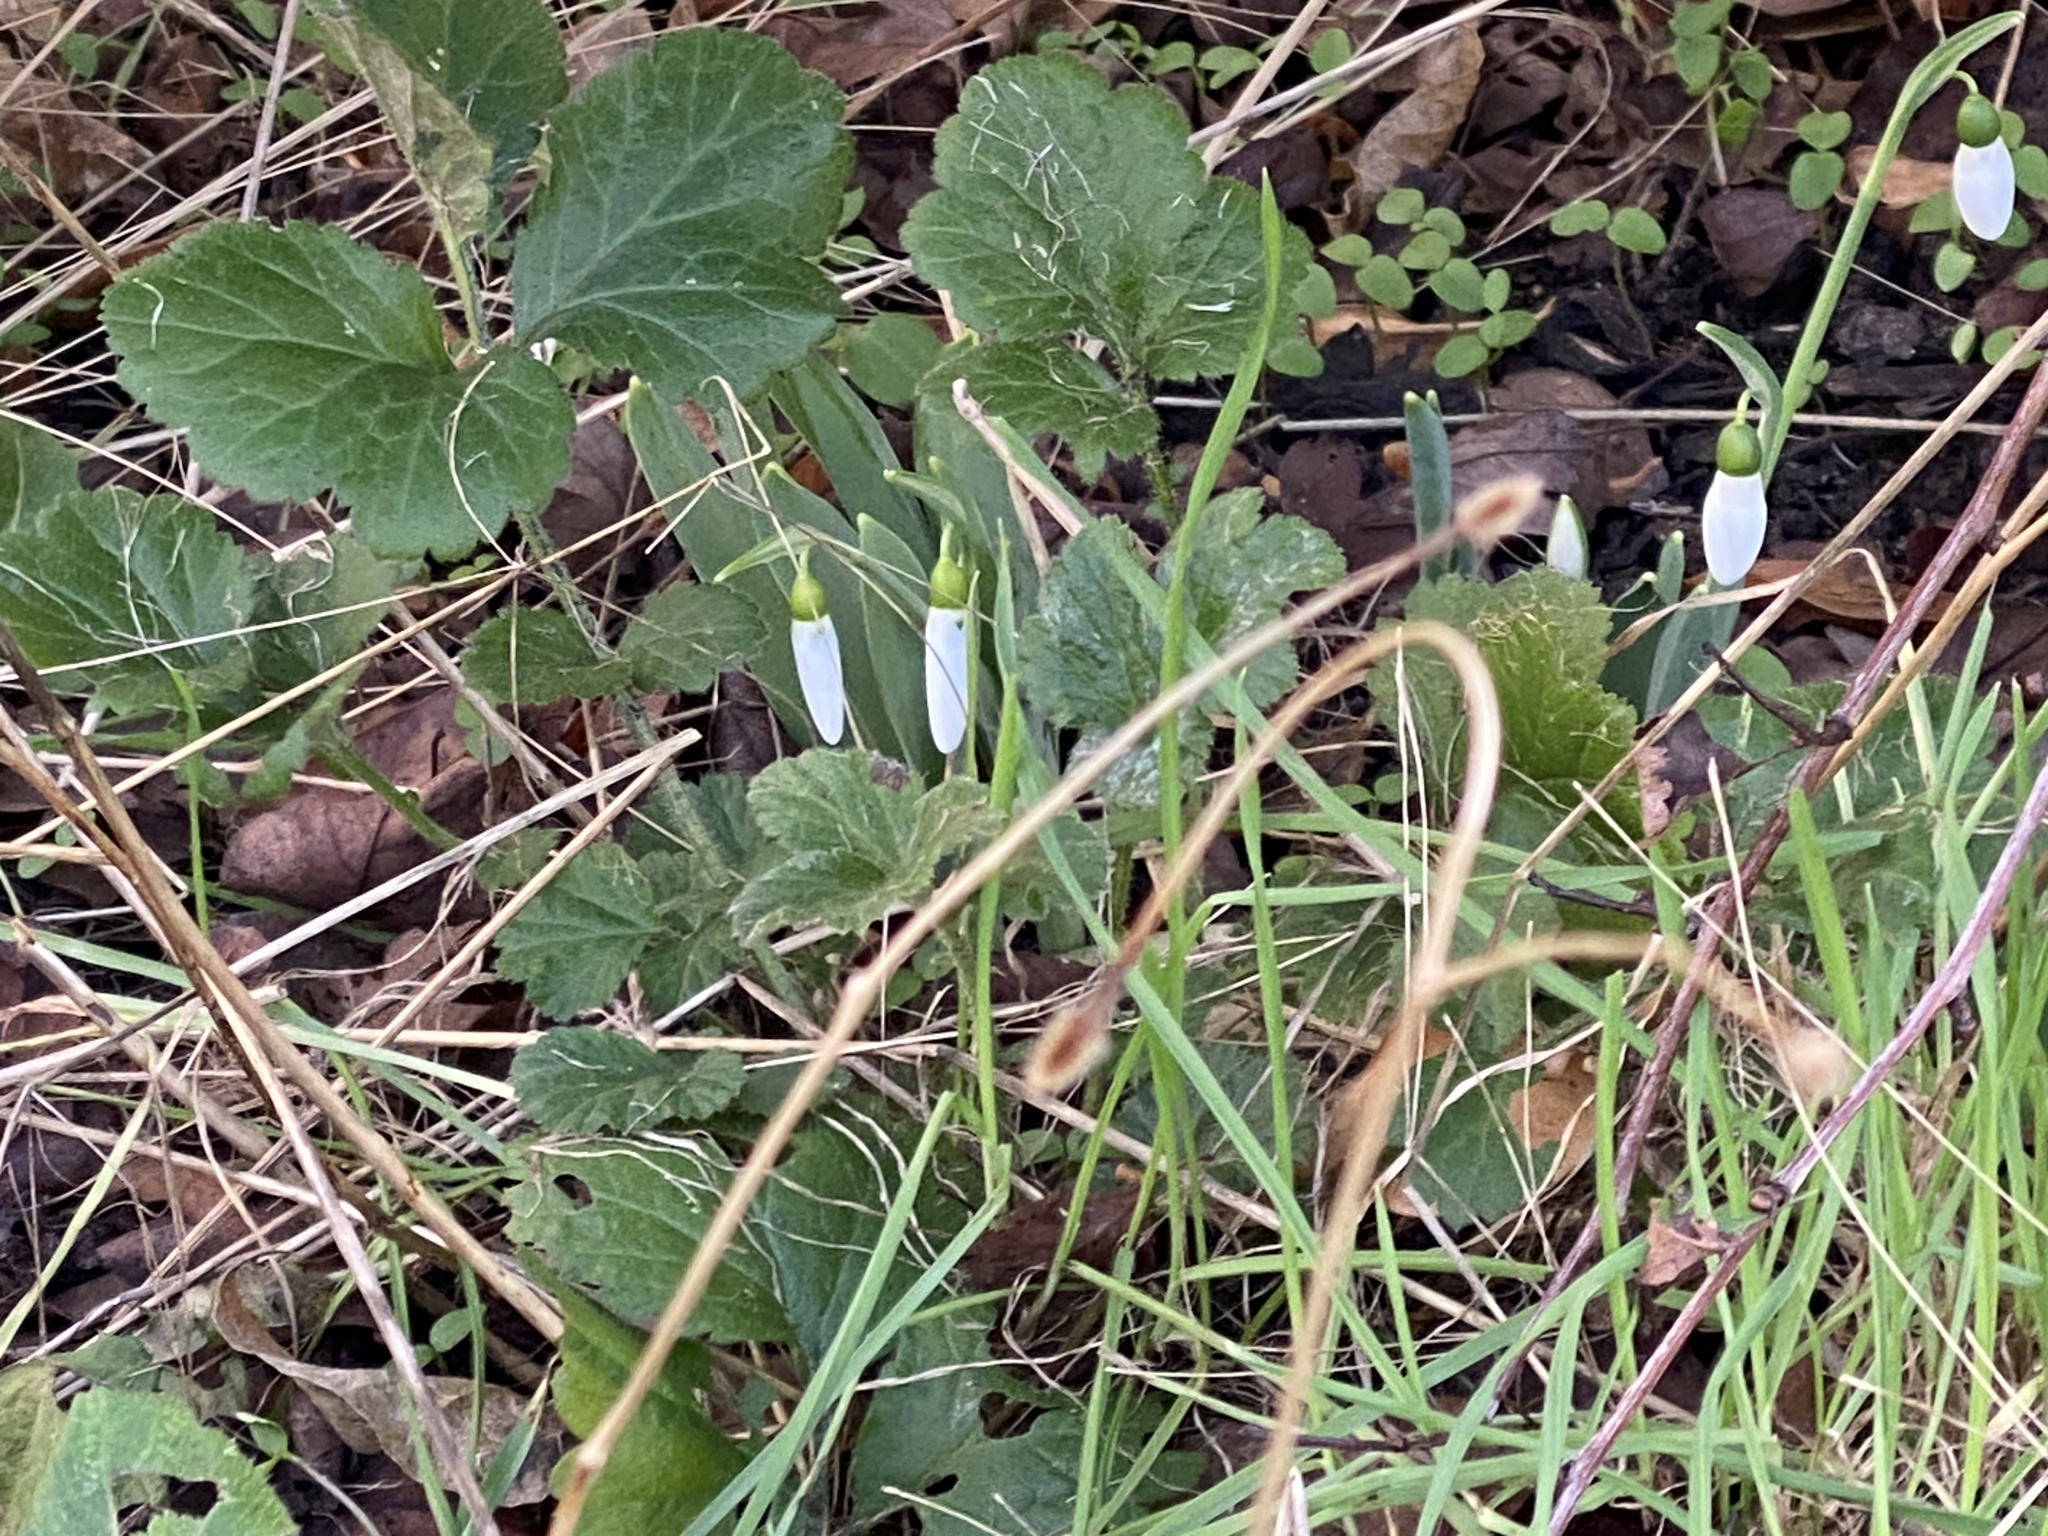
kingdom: Plantae
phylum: Tracheophyta
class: Liliopsida
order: Asparagales
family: Amaryllidaceae
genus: Galanthus
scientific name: Galanthus elwesii
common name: Greater snowdrop
